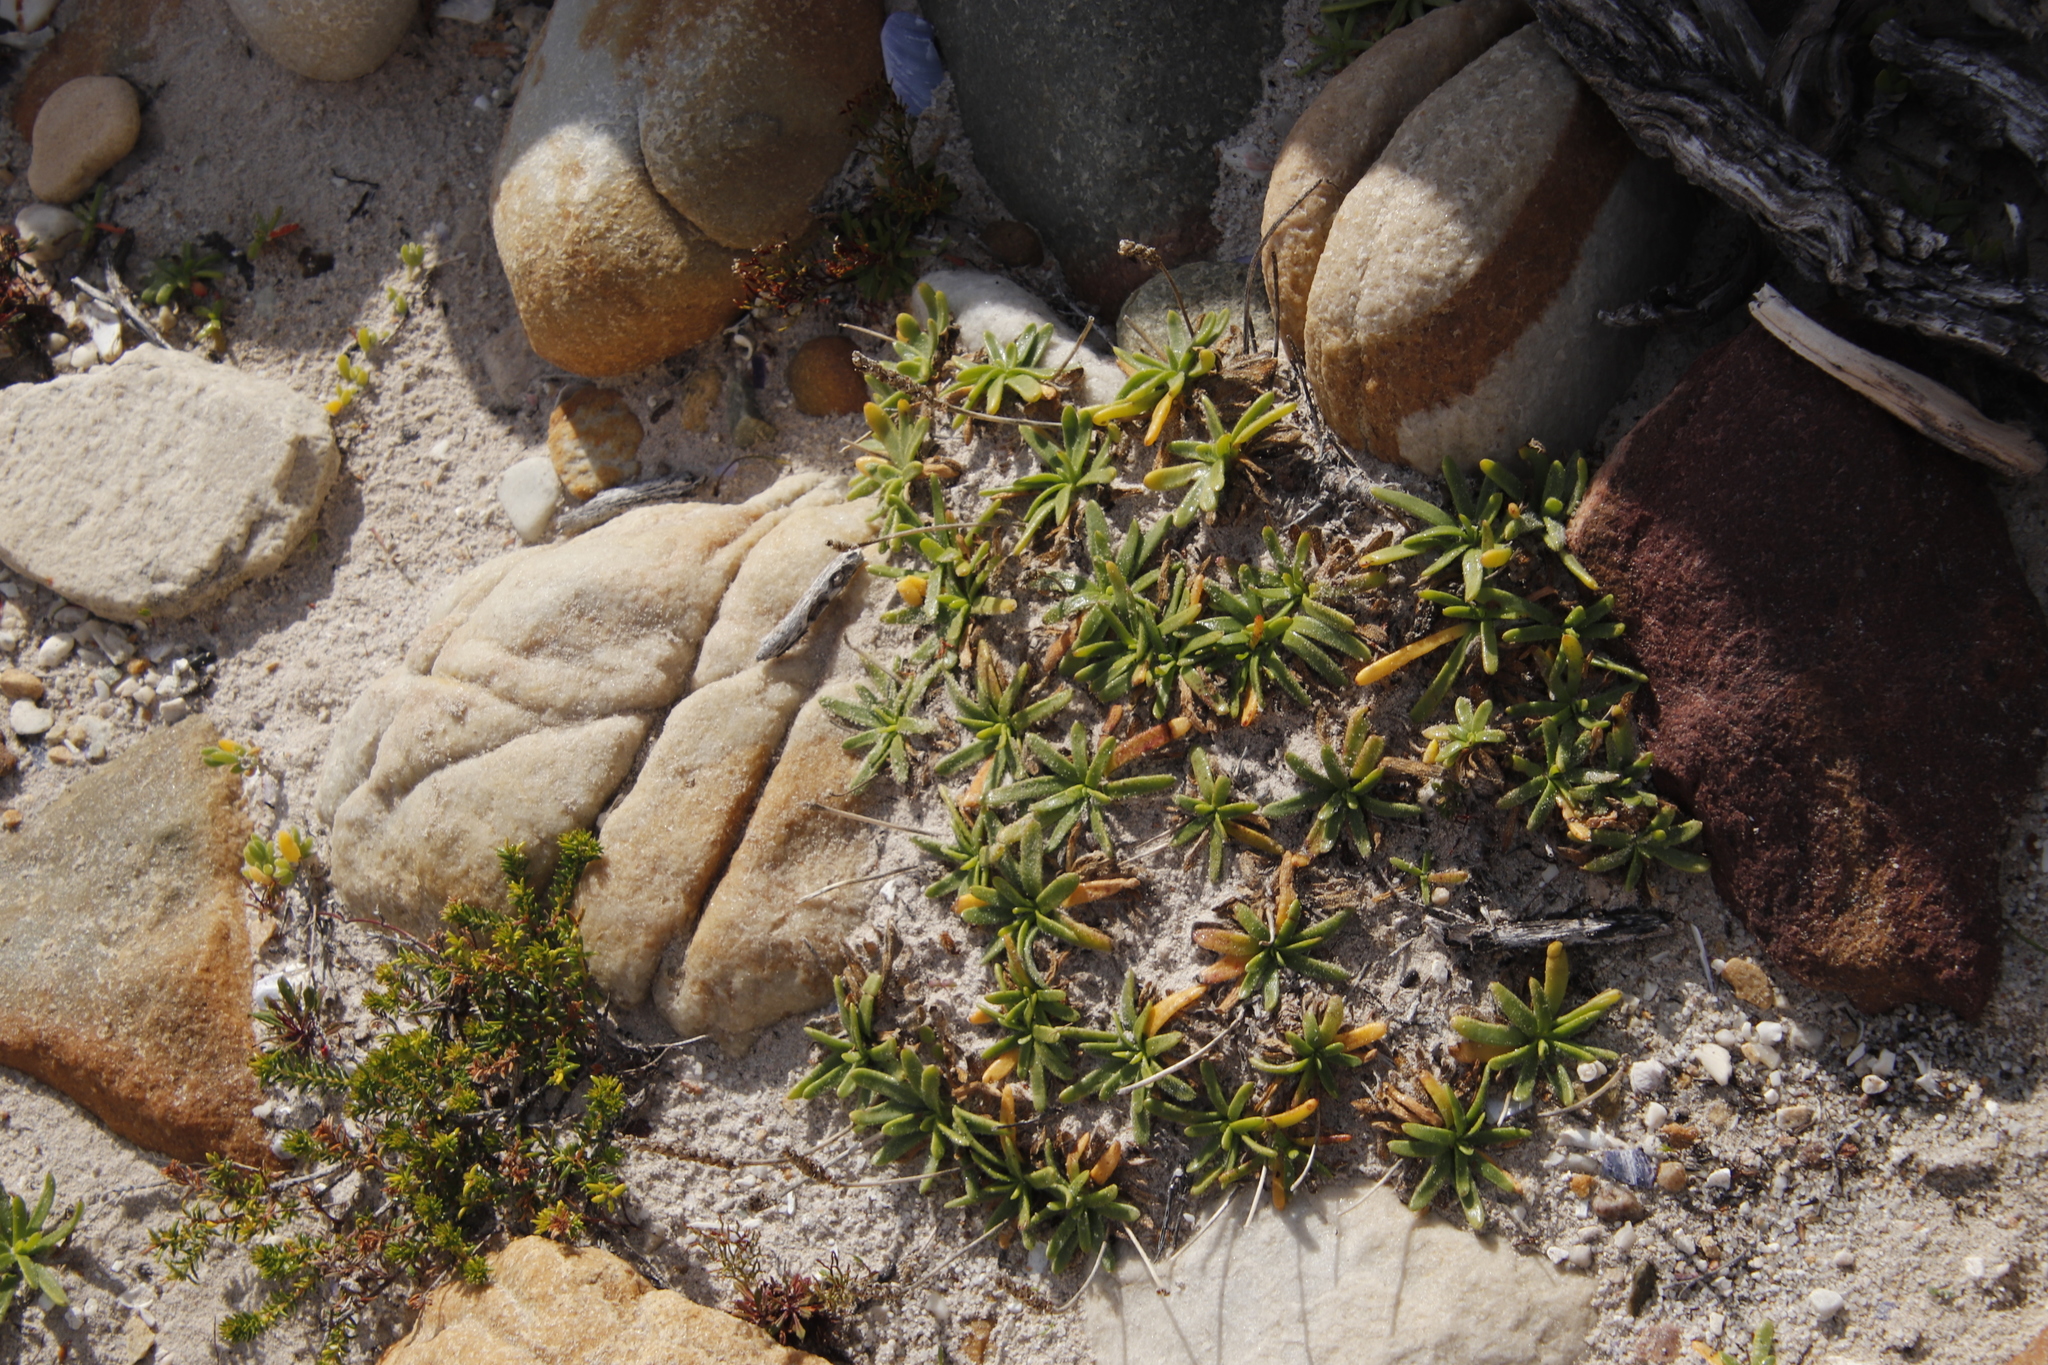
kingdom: Plantae
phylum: Tracheophyta
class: Magnoliopsida
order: Lamiales
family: Plantaginaceae
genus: Plantago
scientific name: Plantago carnosa
